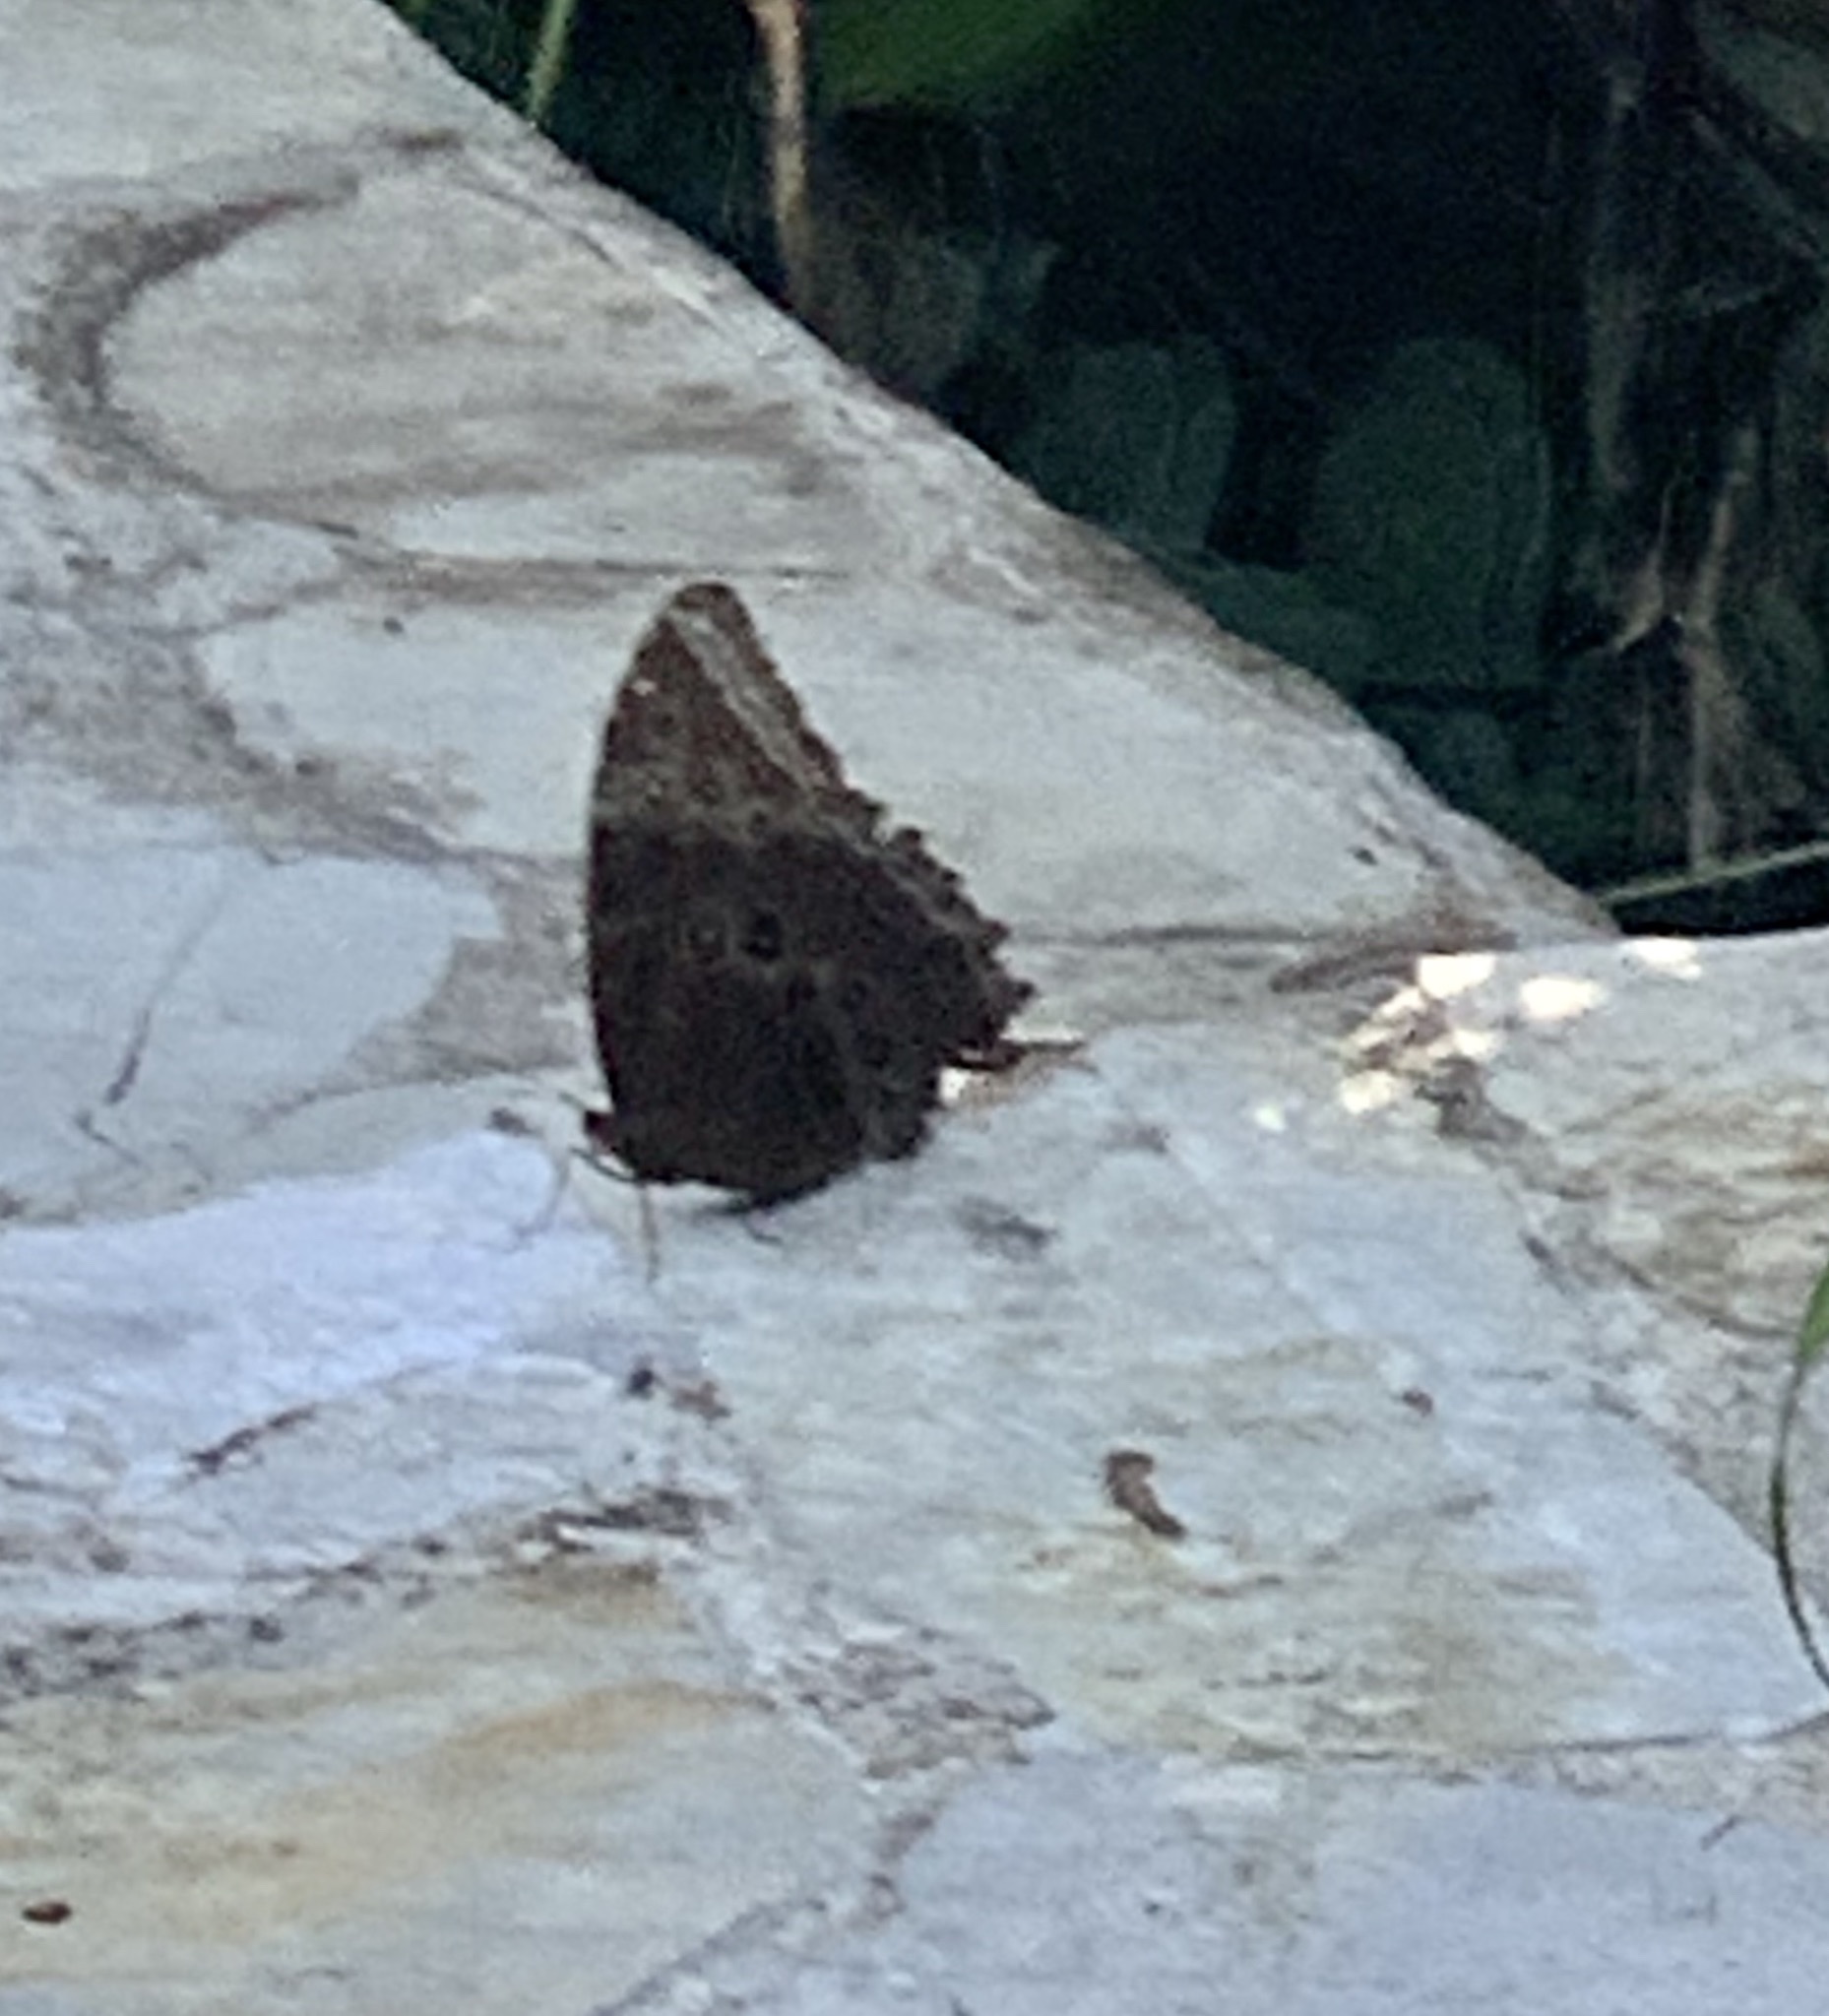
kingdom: Animalia
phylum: Arthropoda
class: Insecta
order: Lepidoptera
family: Nymphalidae
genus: Morpho
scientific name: Morpho helenor
